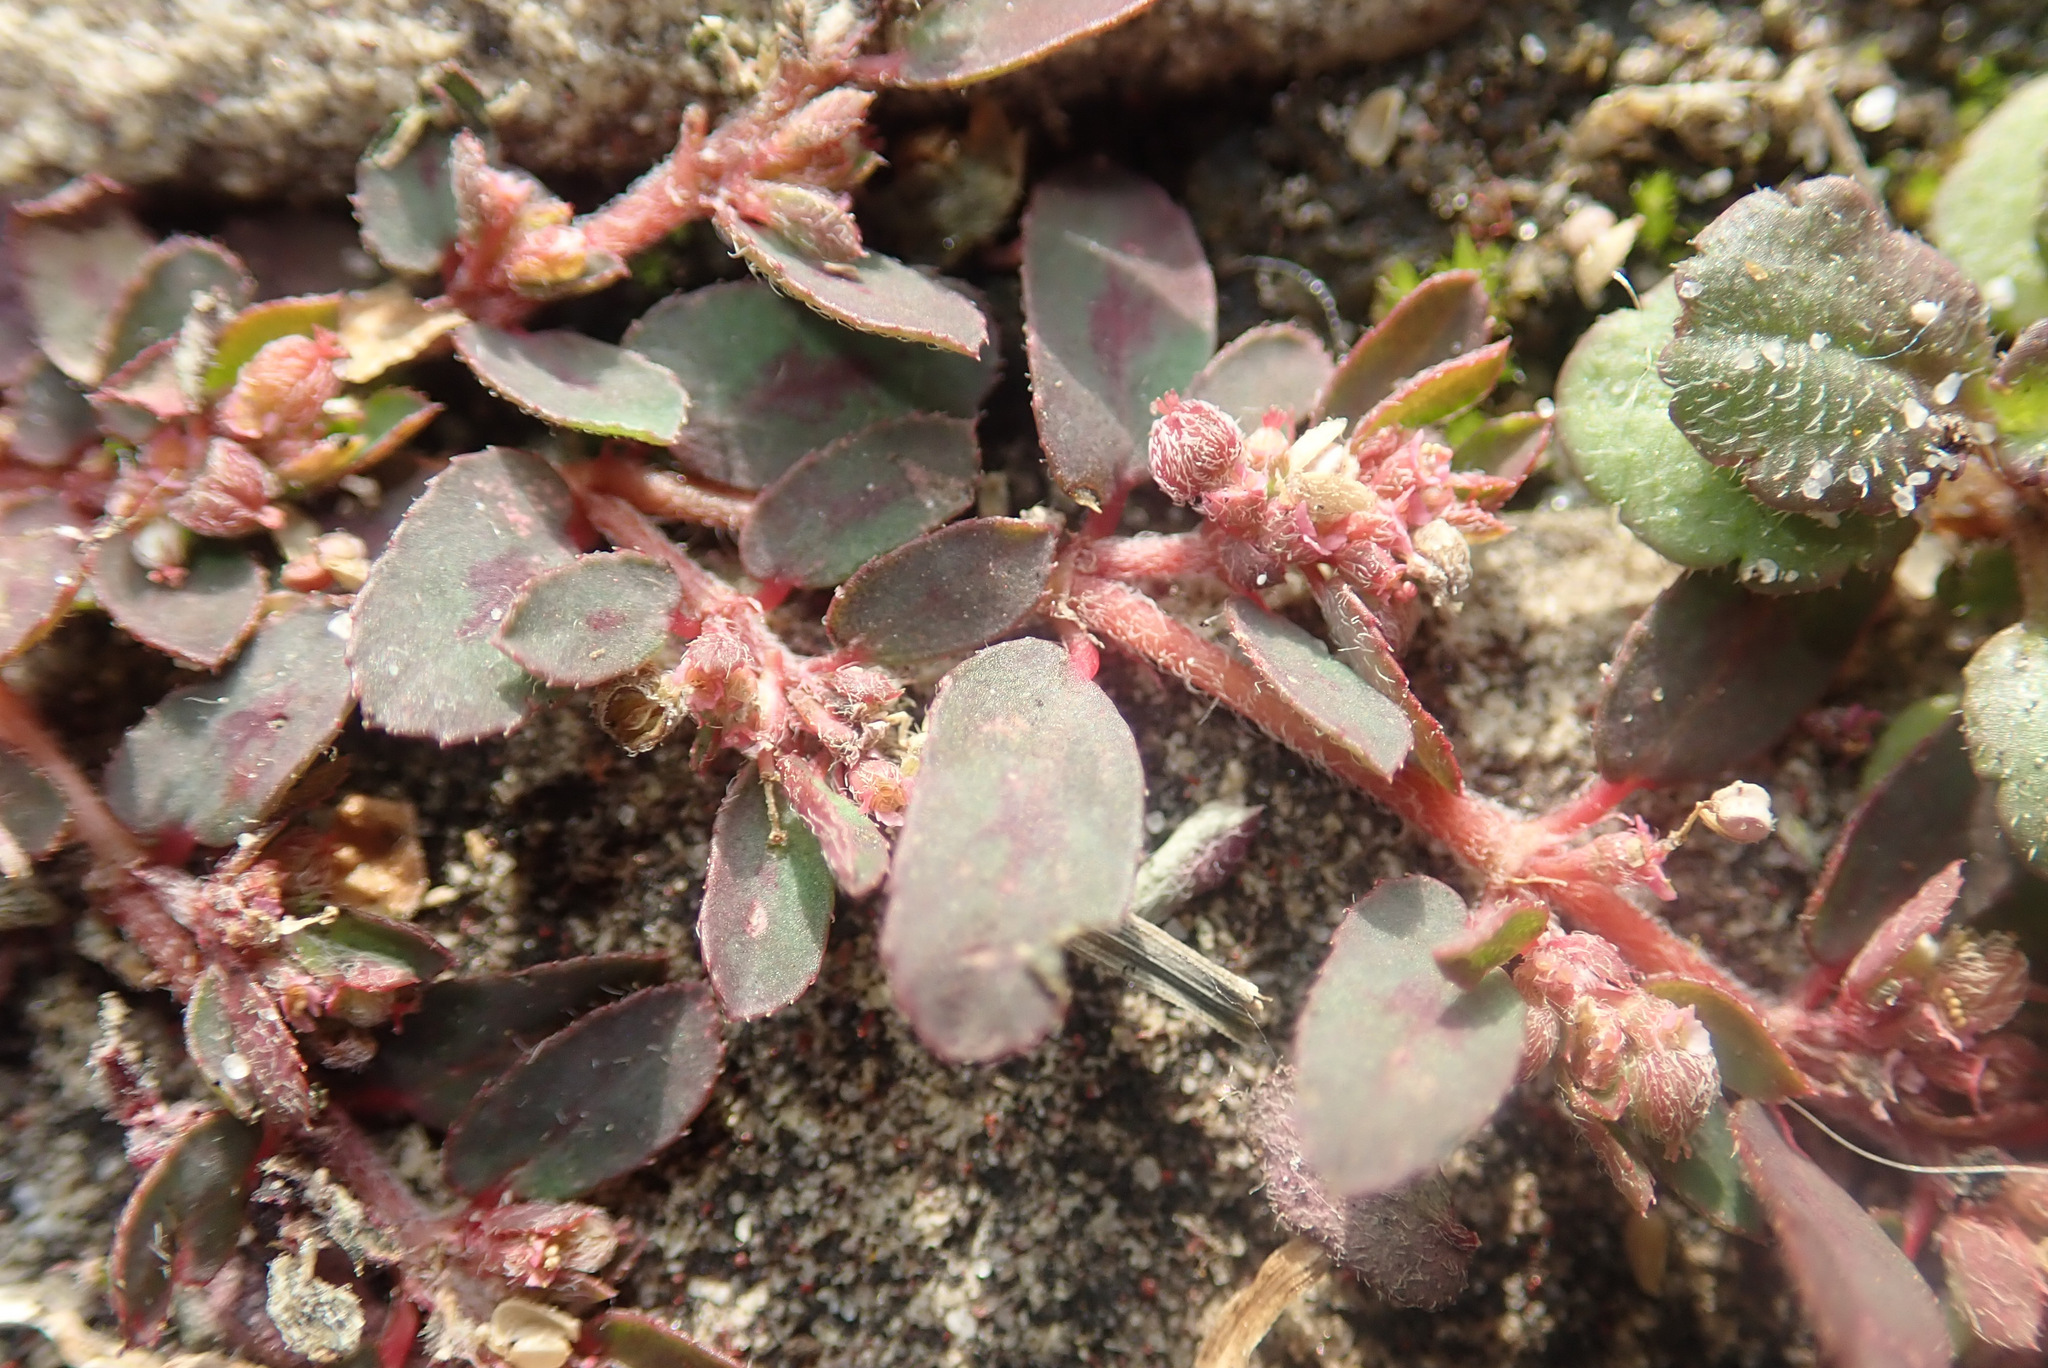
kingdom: Plantae
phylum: Tracheophyta
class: Magnoliopsida
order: Malpighiales
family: Euphorbiaceae
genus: Euphorbia
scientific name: Euphorbia maculata
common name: Spotted spurge
